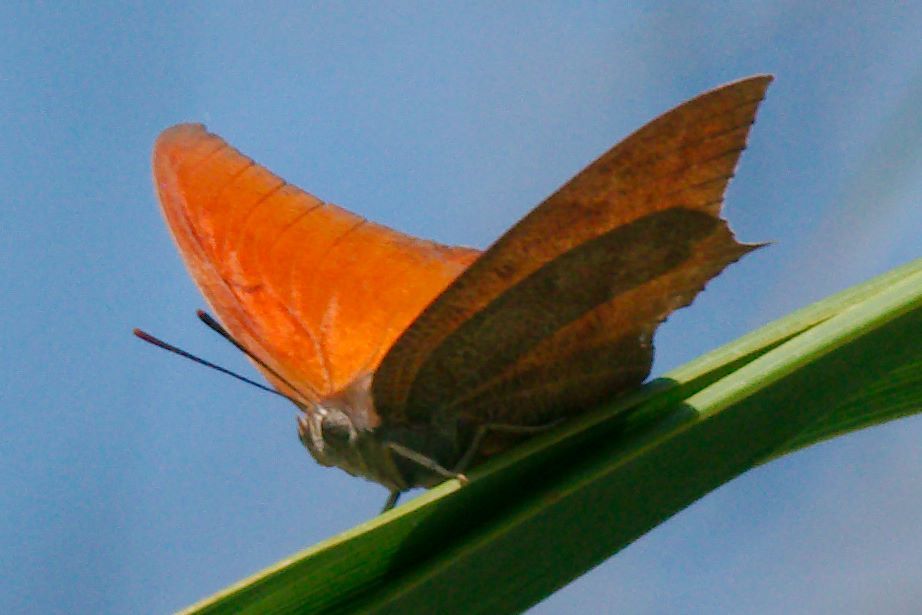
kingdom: Animalia
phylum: Arthropoda
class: Insecta
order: Lepidoptera
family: Nymphalidae
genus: Anaea
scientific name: Anaea andria
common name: Goatweed leafwing
